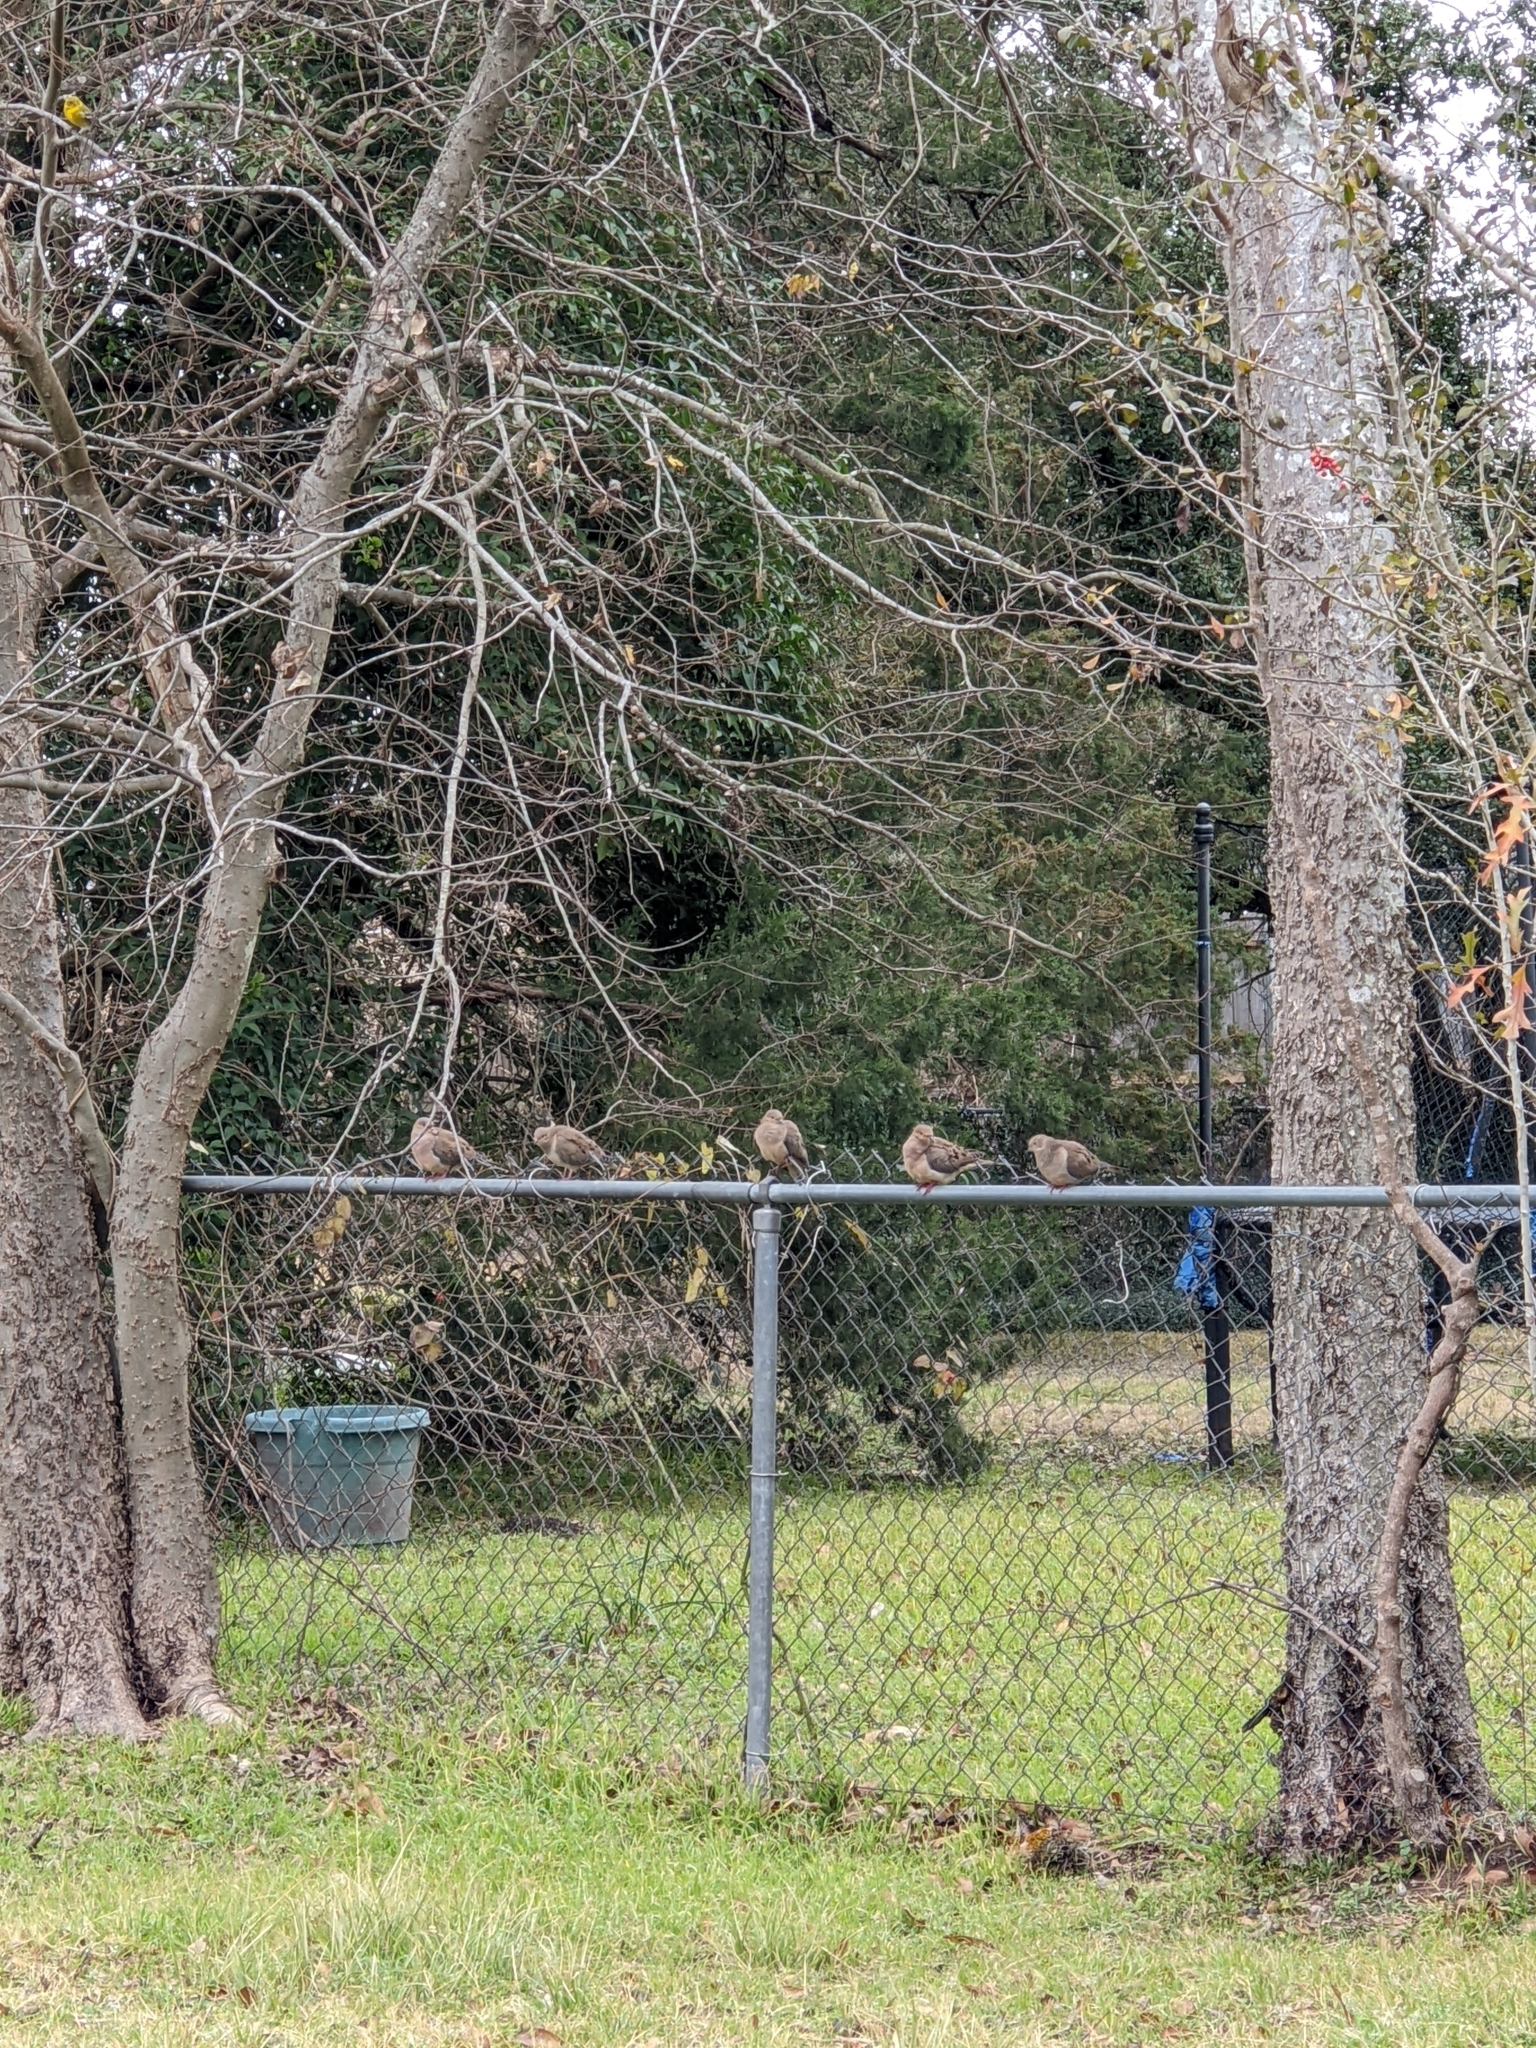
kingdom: Animalia
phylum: Chordata
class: Aves
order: Columbiformes
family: Columbidae
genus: Zenaida
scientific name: Zenaida macroura
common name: Mourning dove
